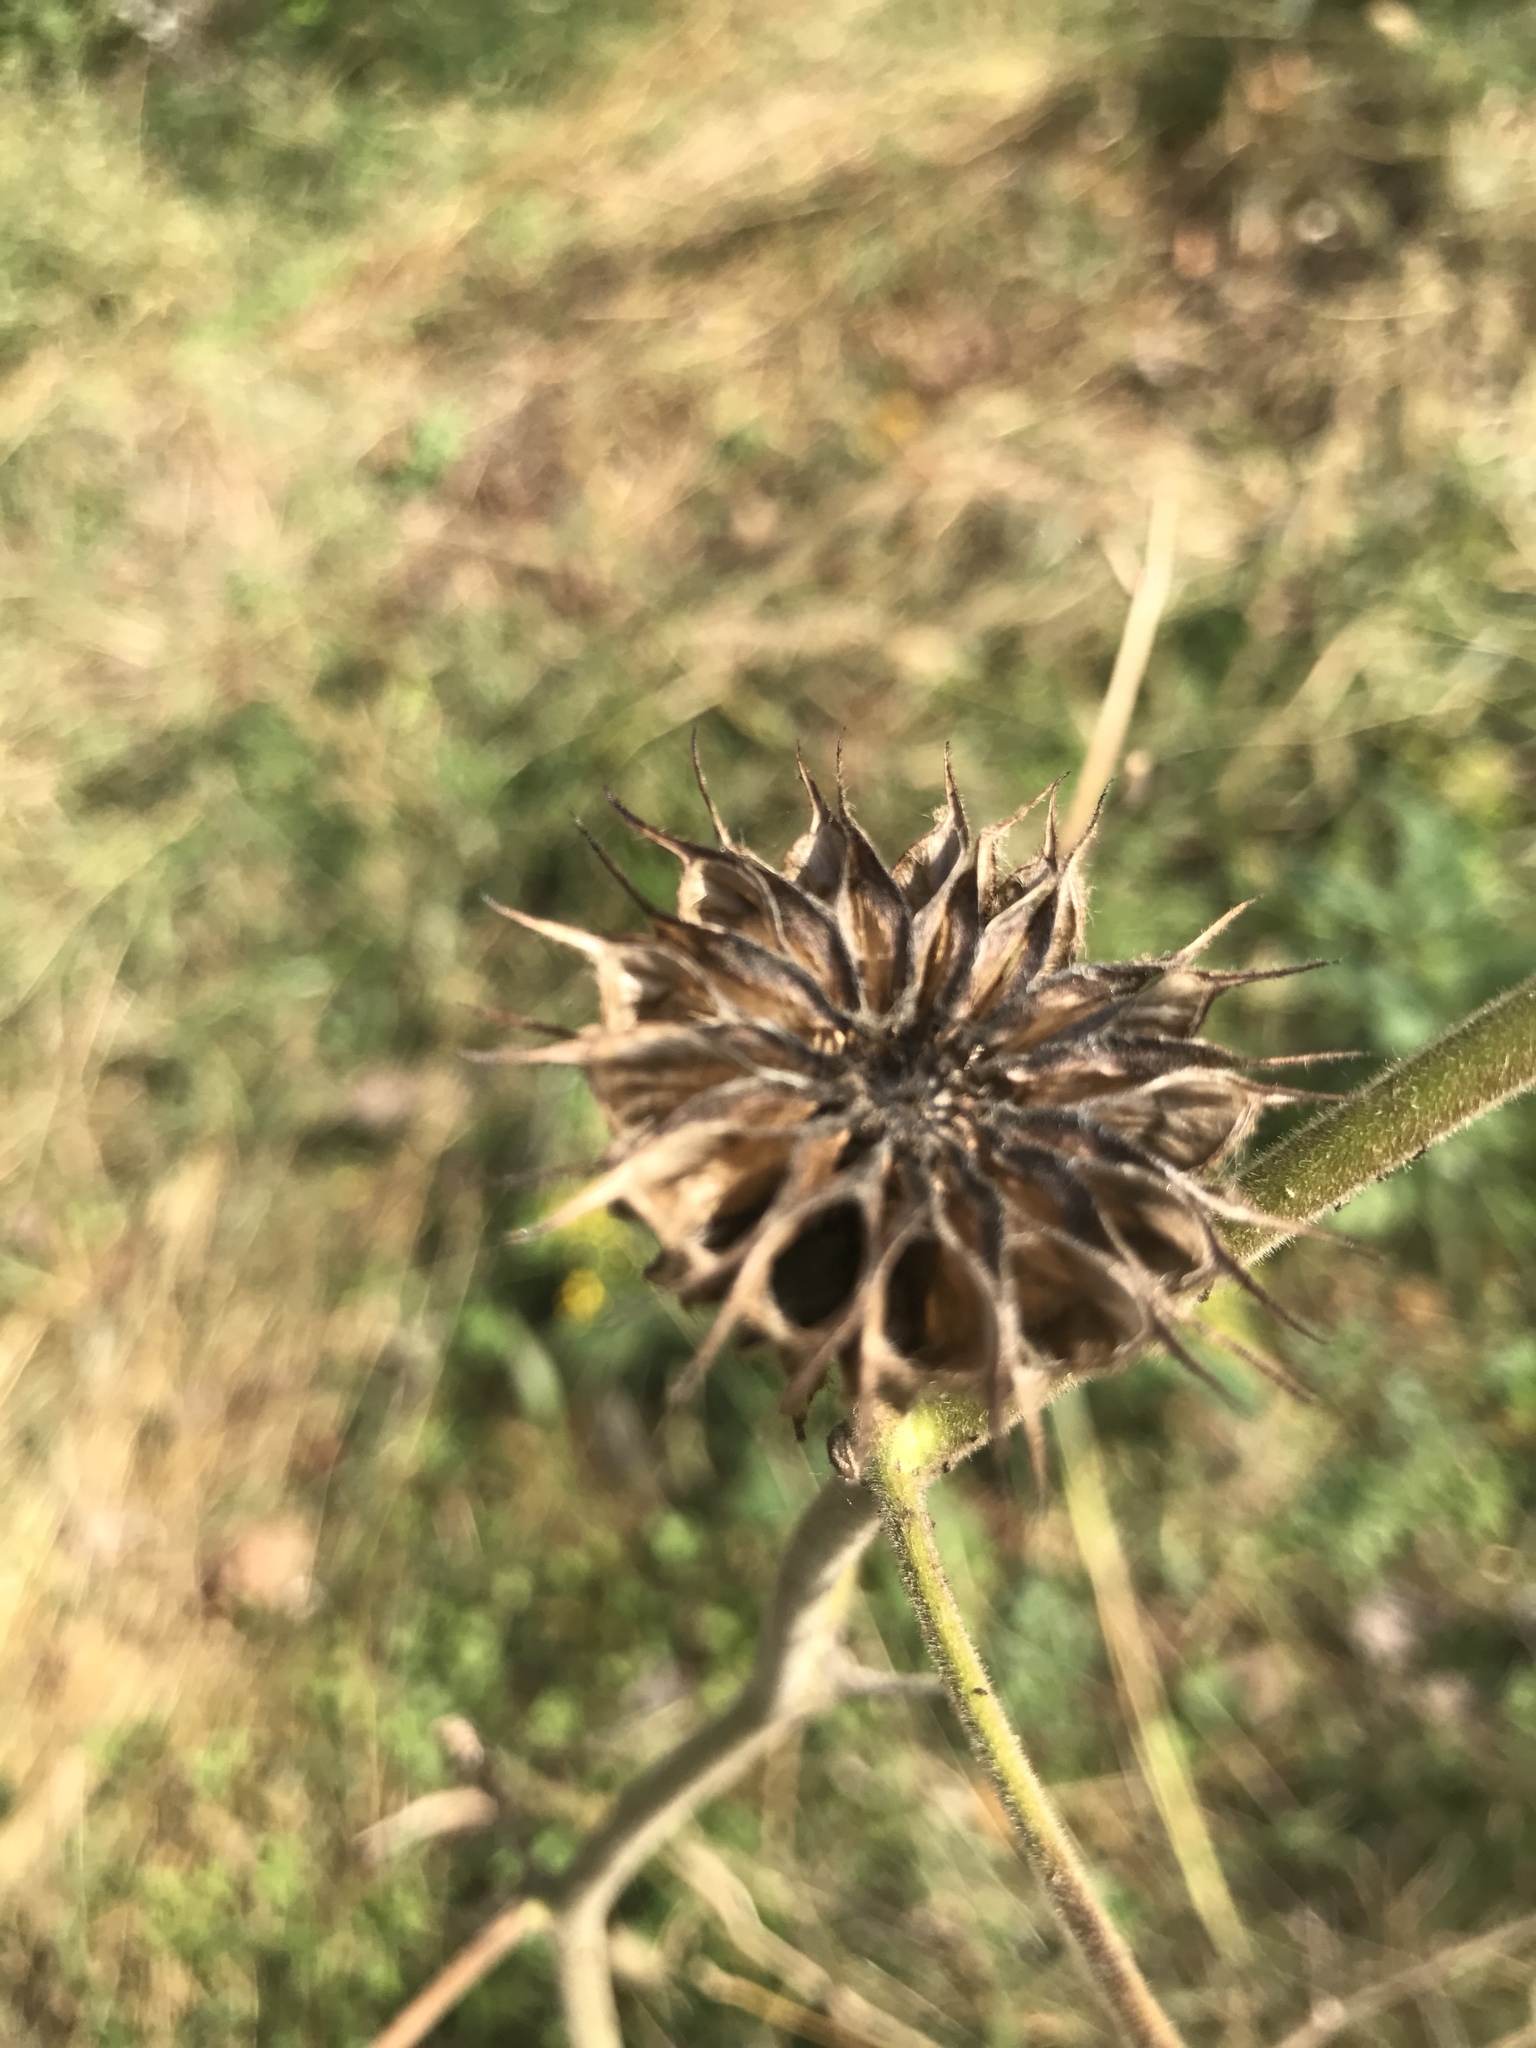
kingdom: Plantae
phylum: Tracheophyta
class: Magnoliopsida
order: Malvales
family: Malvaceae
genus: Abutilon
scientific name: Abutilon theophrasti
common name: Velvetleaf
